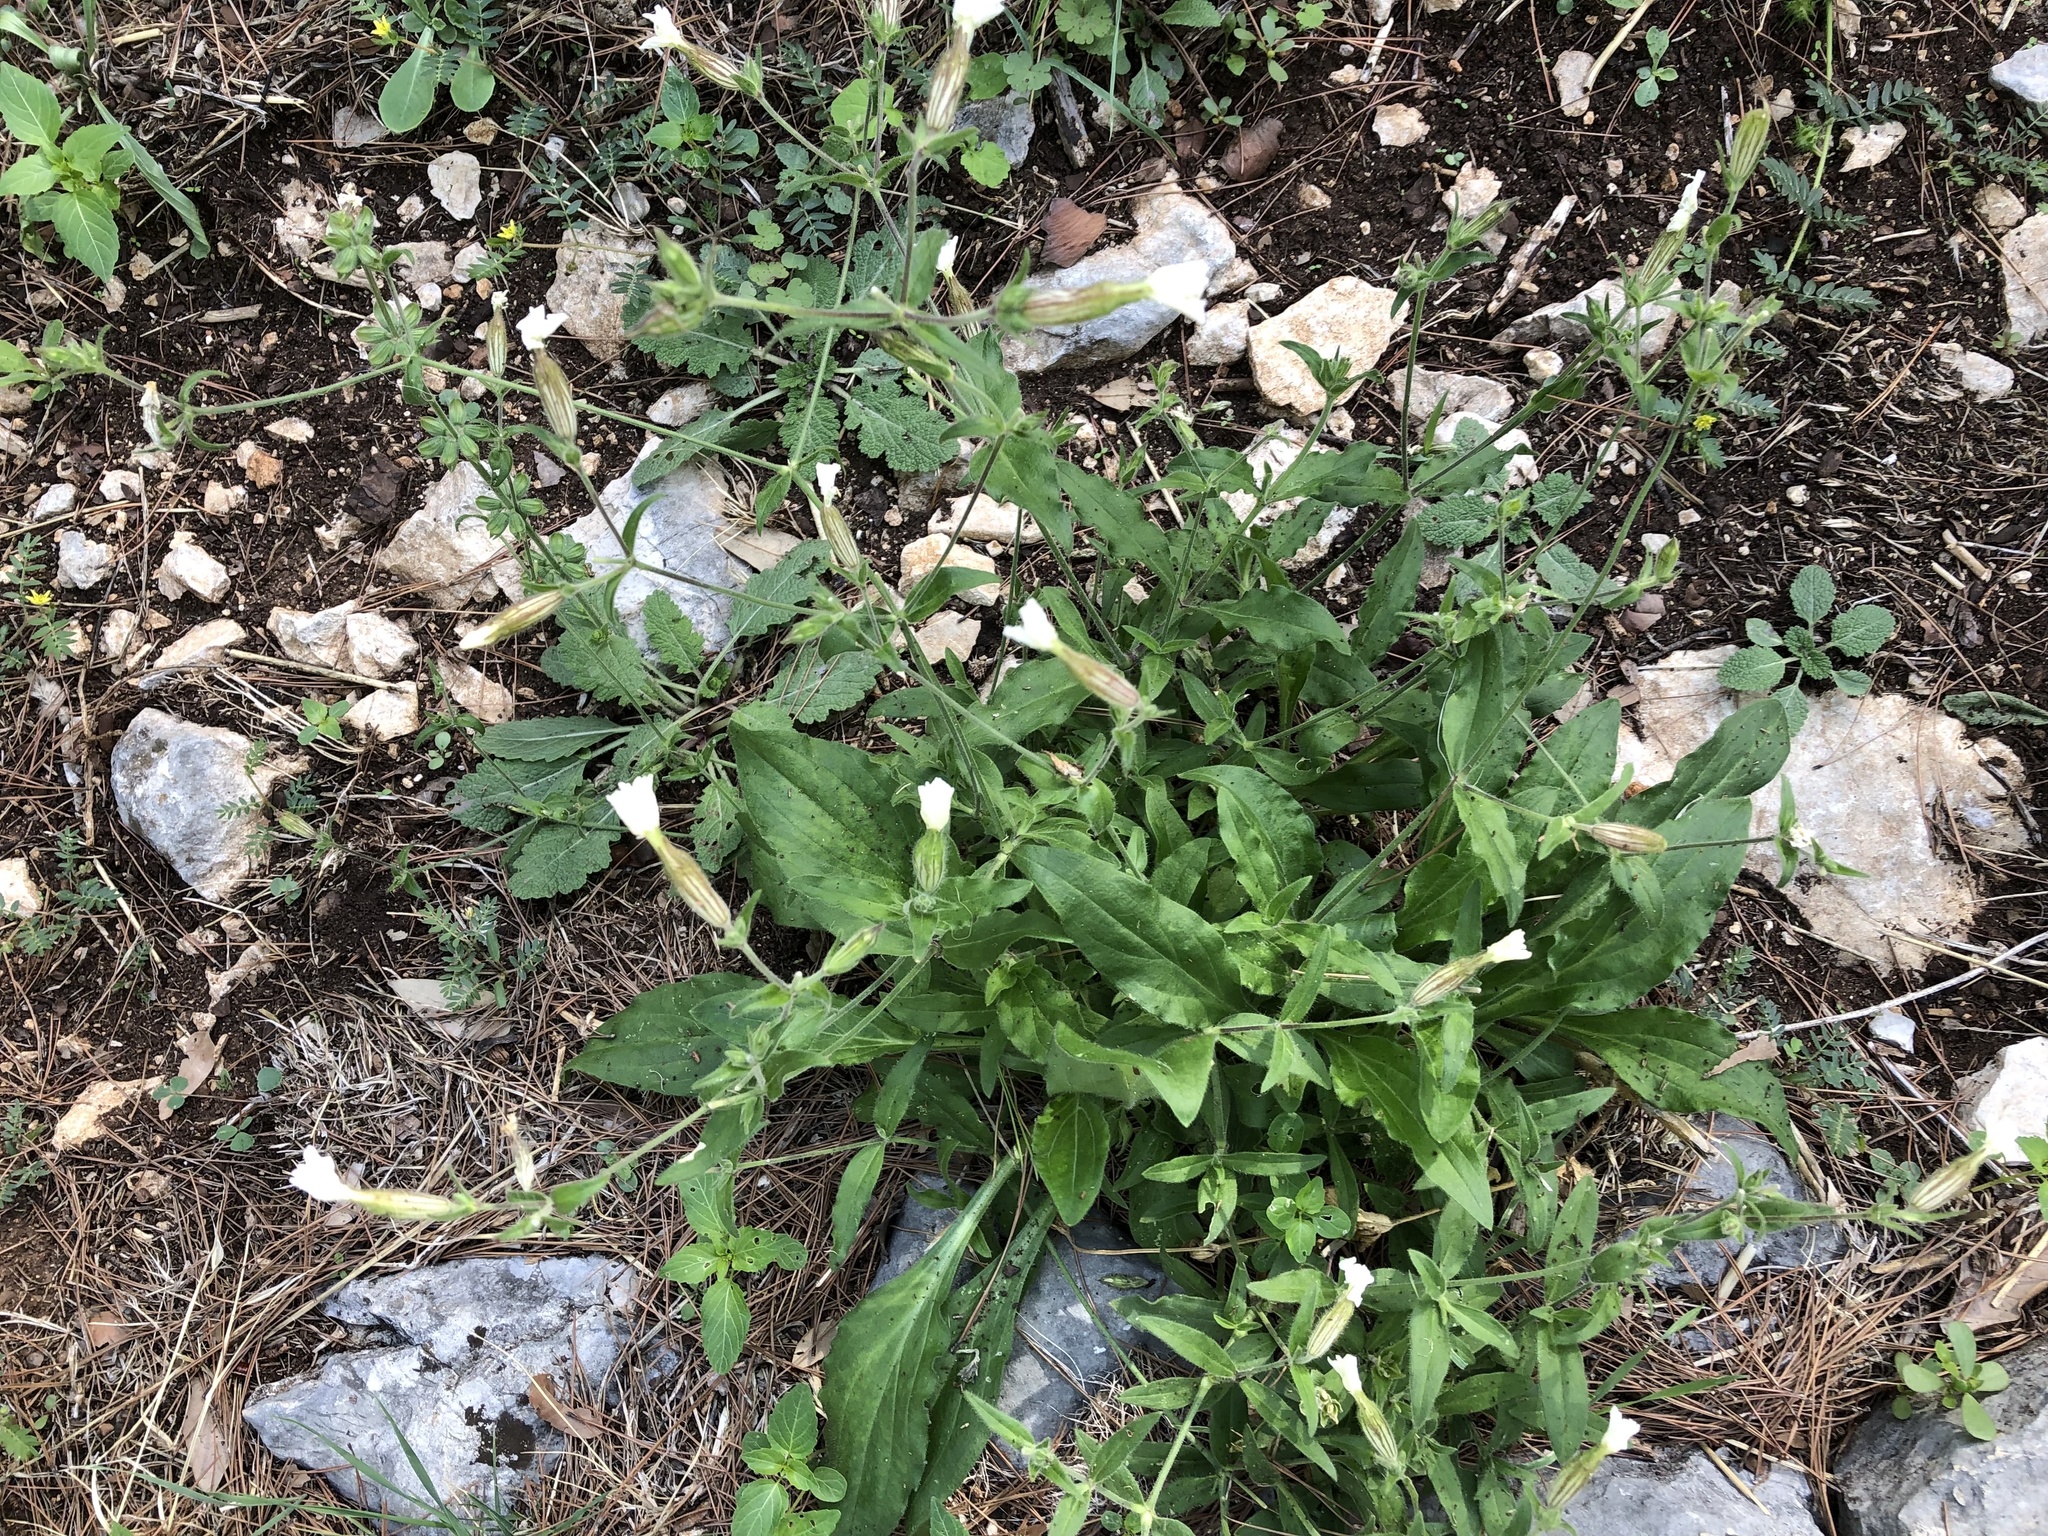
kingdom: Plantae
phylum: Tracheophyta
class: Magnoliopsida
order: Caryophyllales
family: Caryophyllaceae
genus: Silene
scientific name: Silene latifolia
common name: White campion
